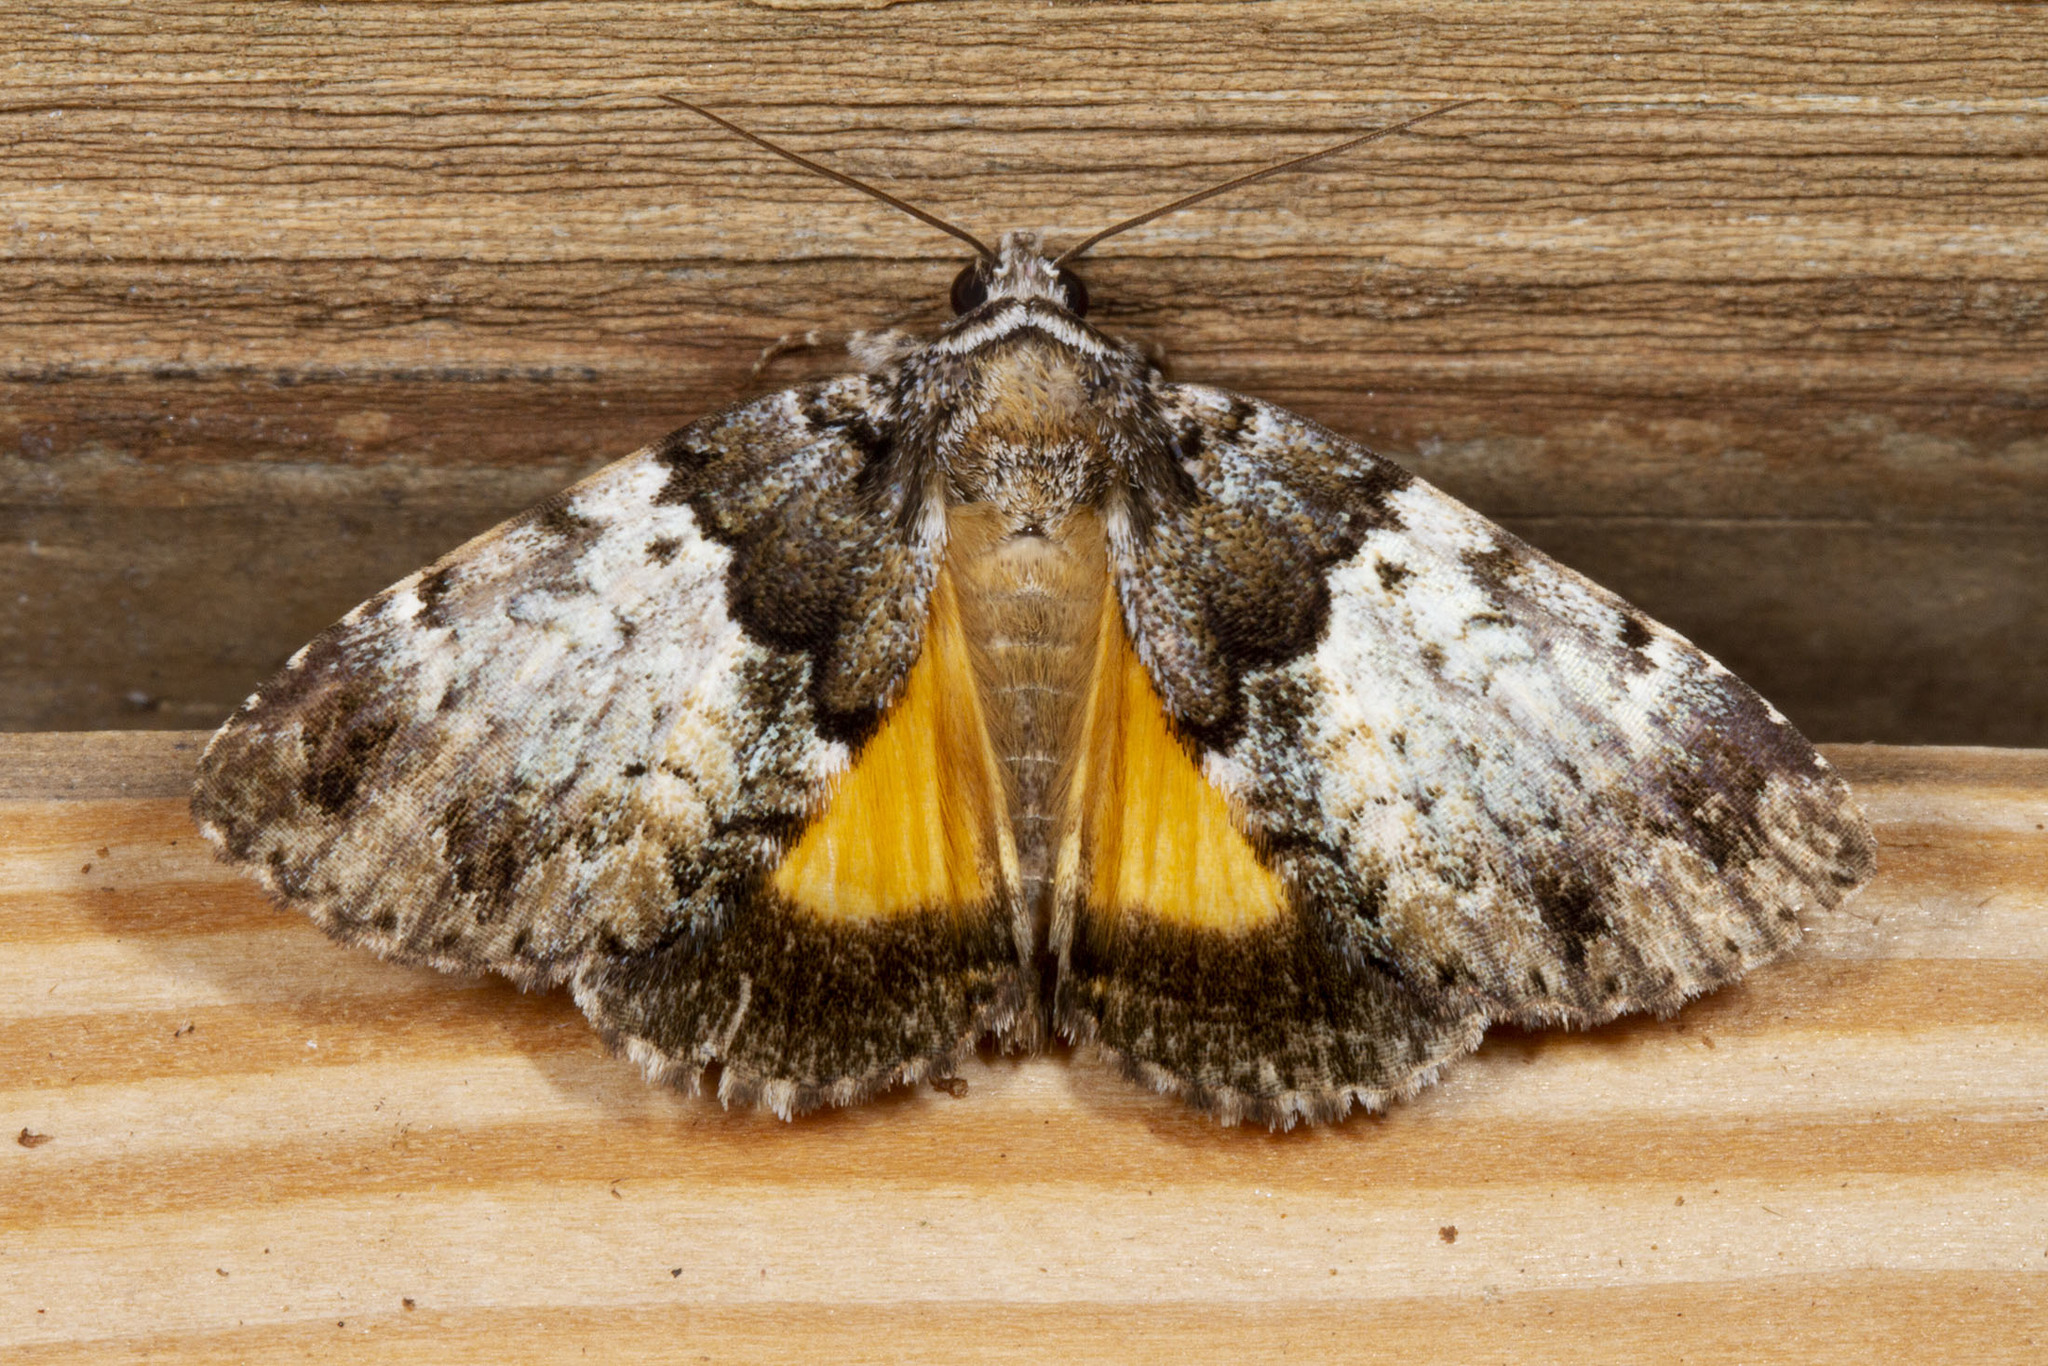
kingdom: Animalia
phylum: Arthropoda
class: Insecta
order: Lepidoptera
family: Erebidae
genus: Allotria
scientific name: Allotria elonympha
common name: False underwing
